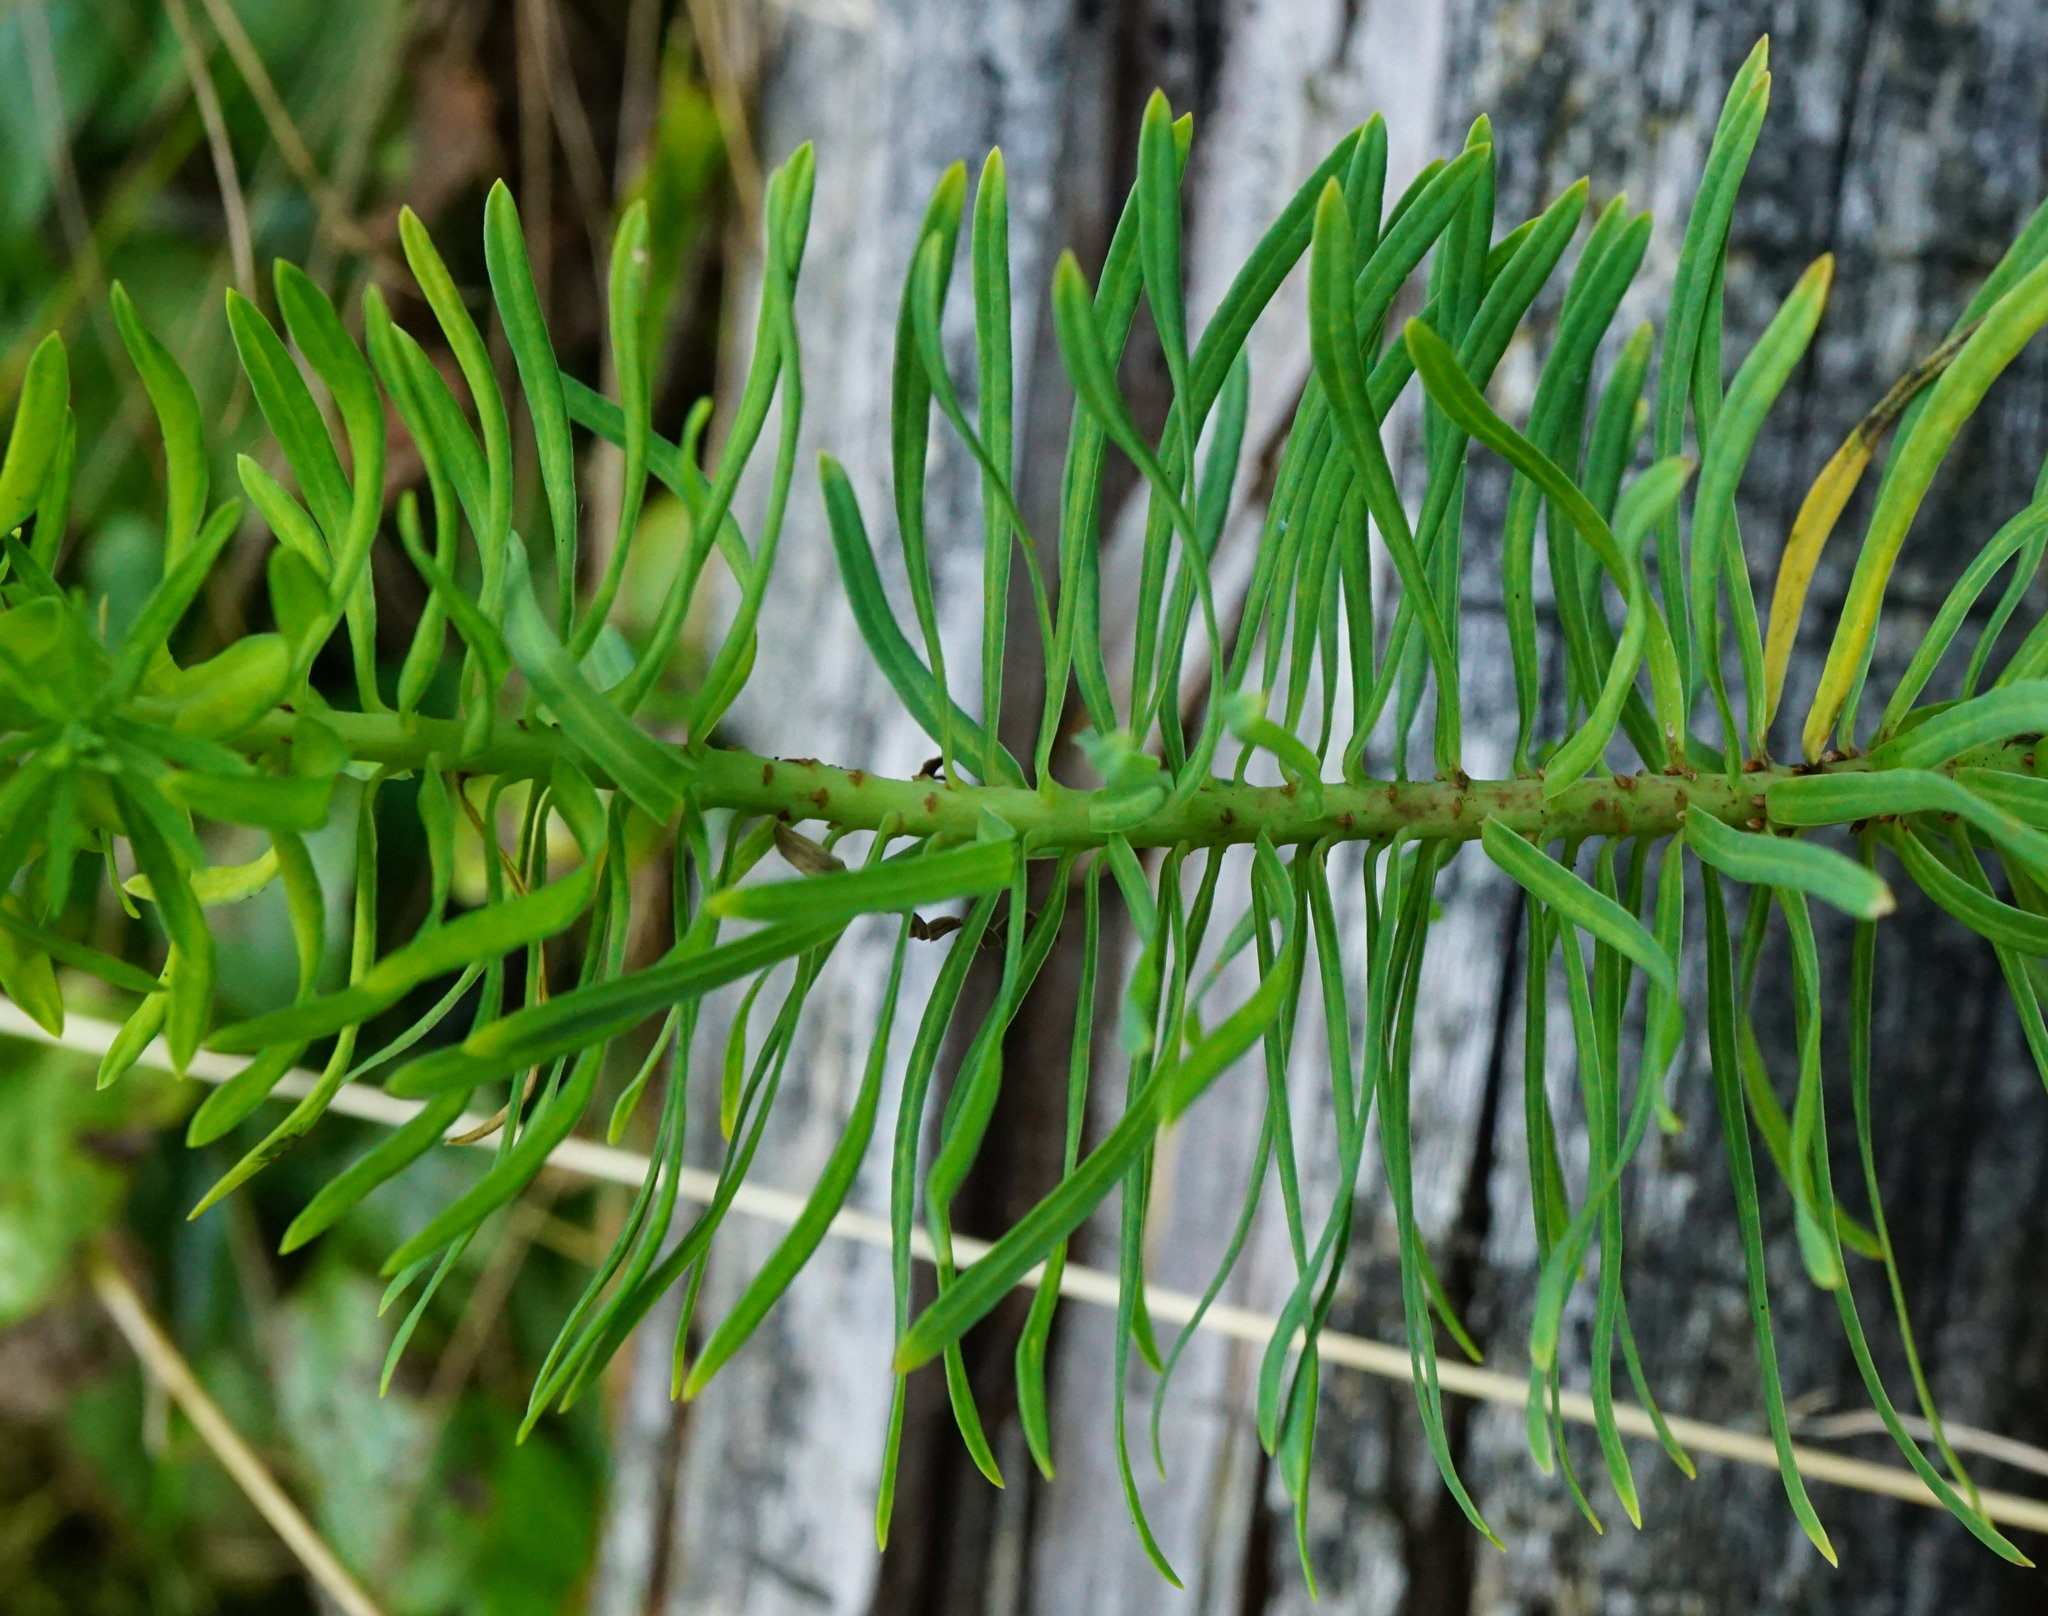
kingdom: Plantae
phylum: Tracheophyta
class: Magnoliopsida
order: Malpighiales
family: Euphorbiaceae
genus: Euphorbia
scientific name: Euphorbia cyparissias
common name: Cypress spurge
